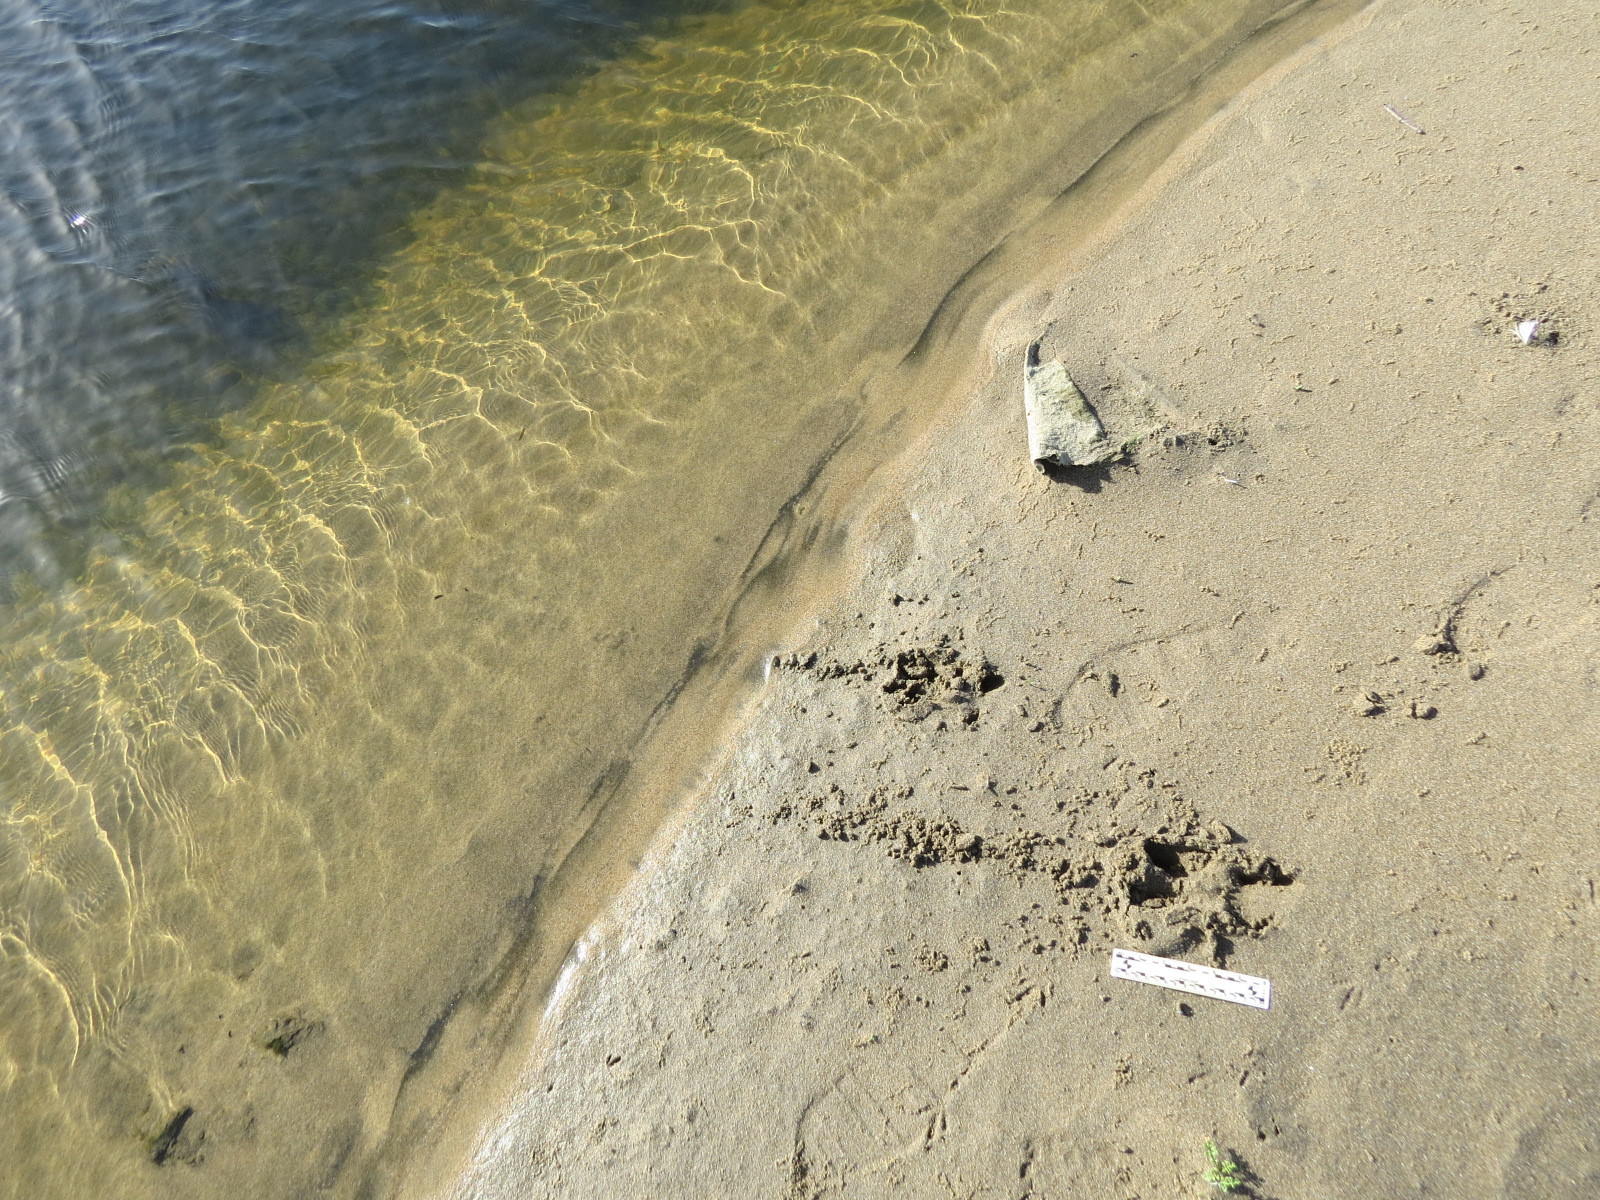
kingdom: Animalia
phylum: Chordata
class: Mammalia
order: Artiodactyla
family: Cervidae
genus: Odocoileus
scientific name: Odocoileus hemionus
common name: Mule deer
